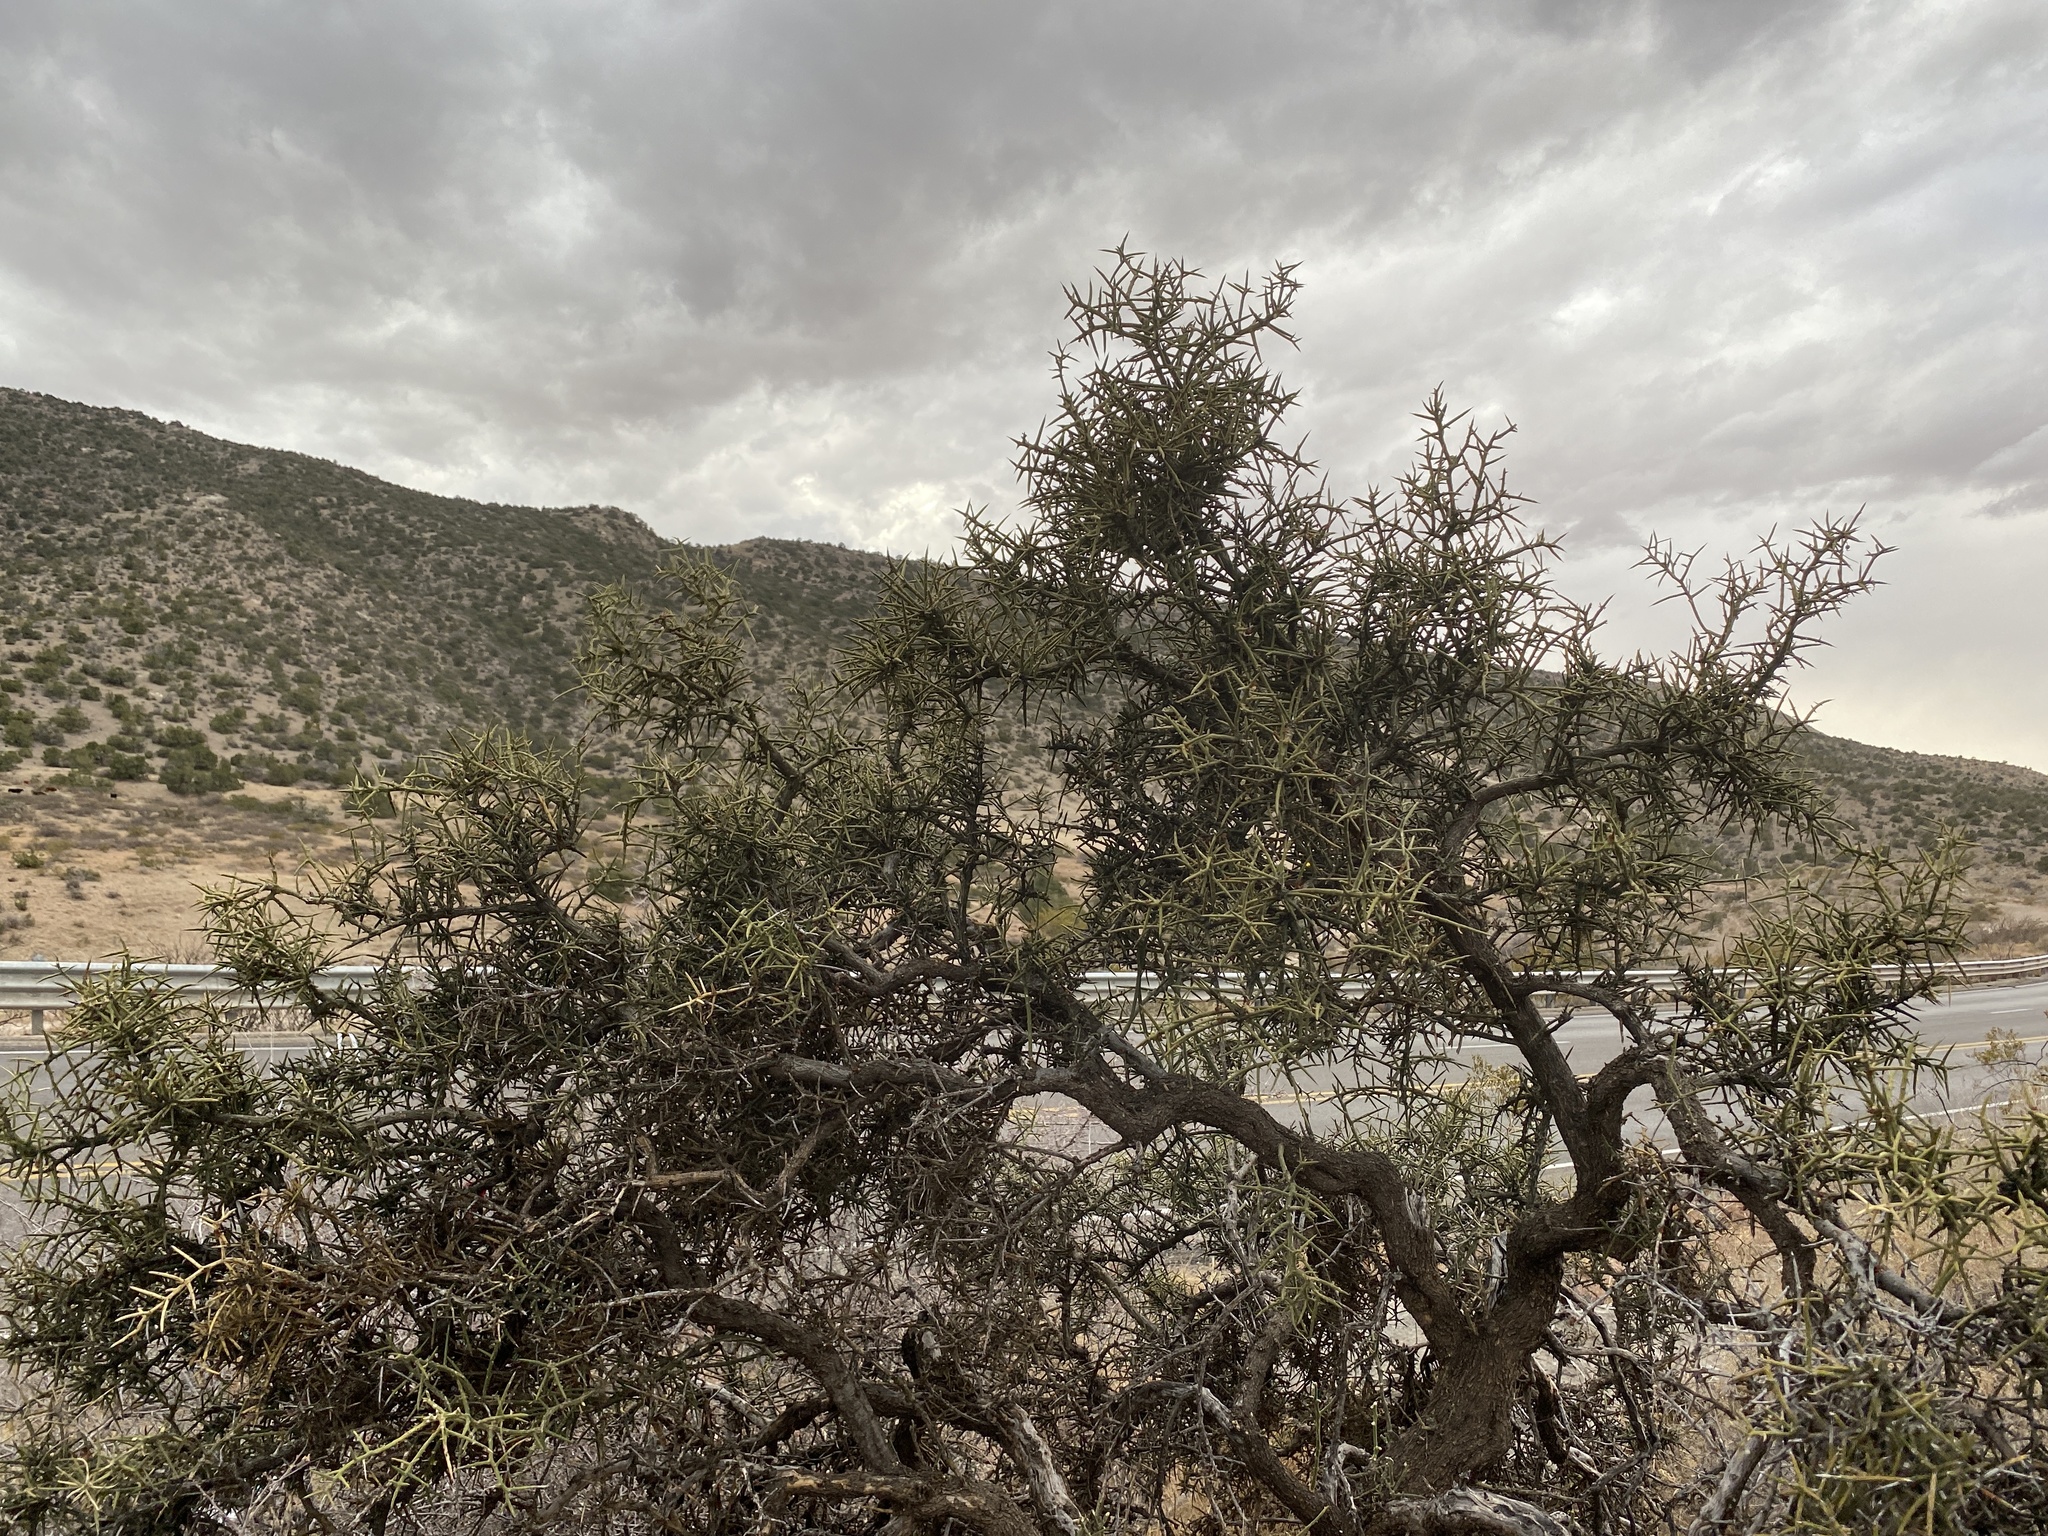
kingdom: Plantae
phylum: Tracheophyta
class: Magnoliopsida
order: Brassicales
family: Koeberliniaceae
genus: Koeberlinia
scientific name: Koeberlinia spinosa
